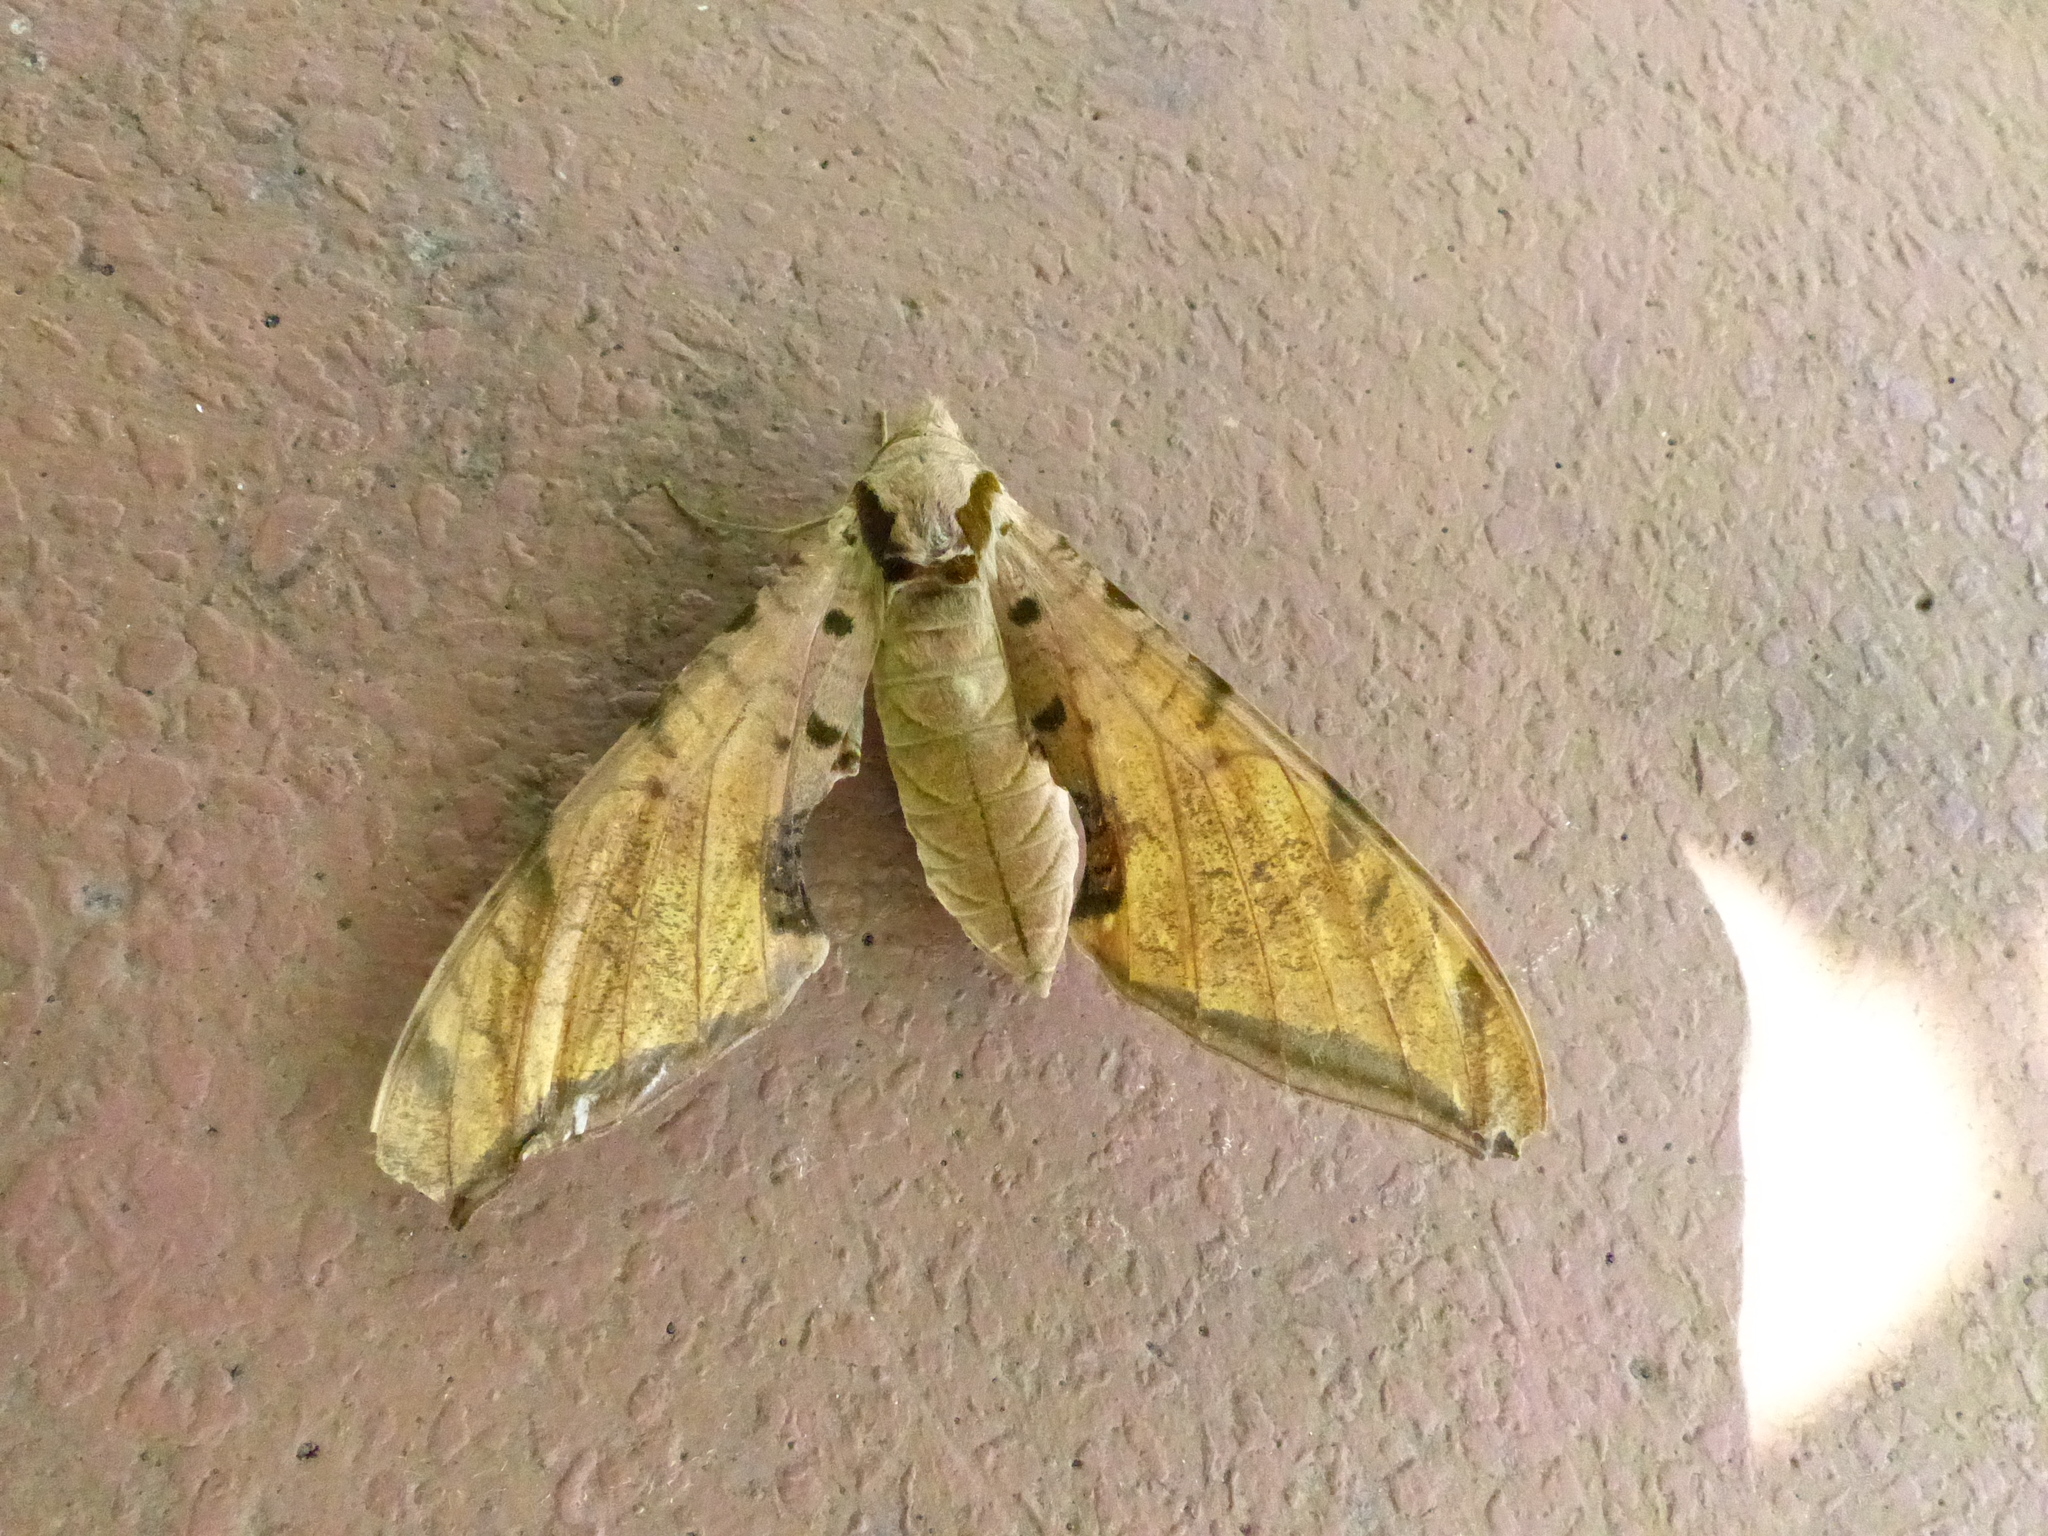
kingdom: Animalia
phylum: Arthropoda
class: Insecta
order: Lepidoptera
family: Sphingidae
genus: Protambulyx
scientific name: Protambulyx strigilis
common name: Streaked sphinx
